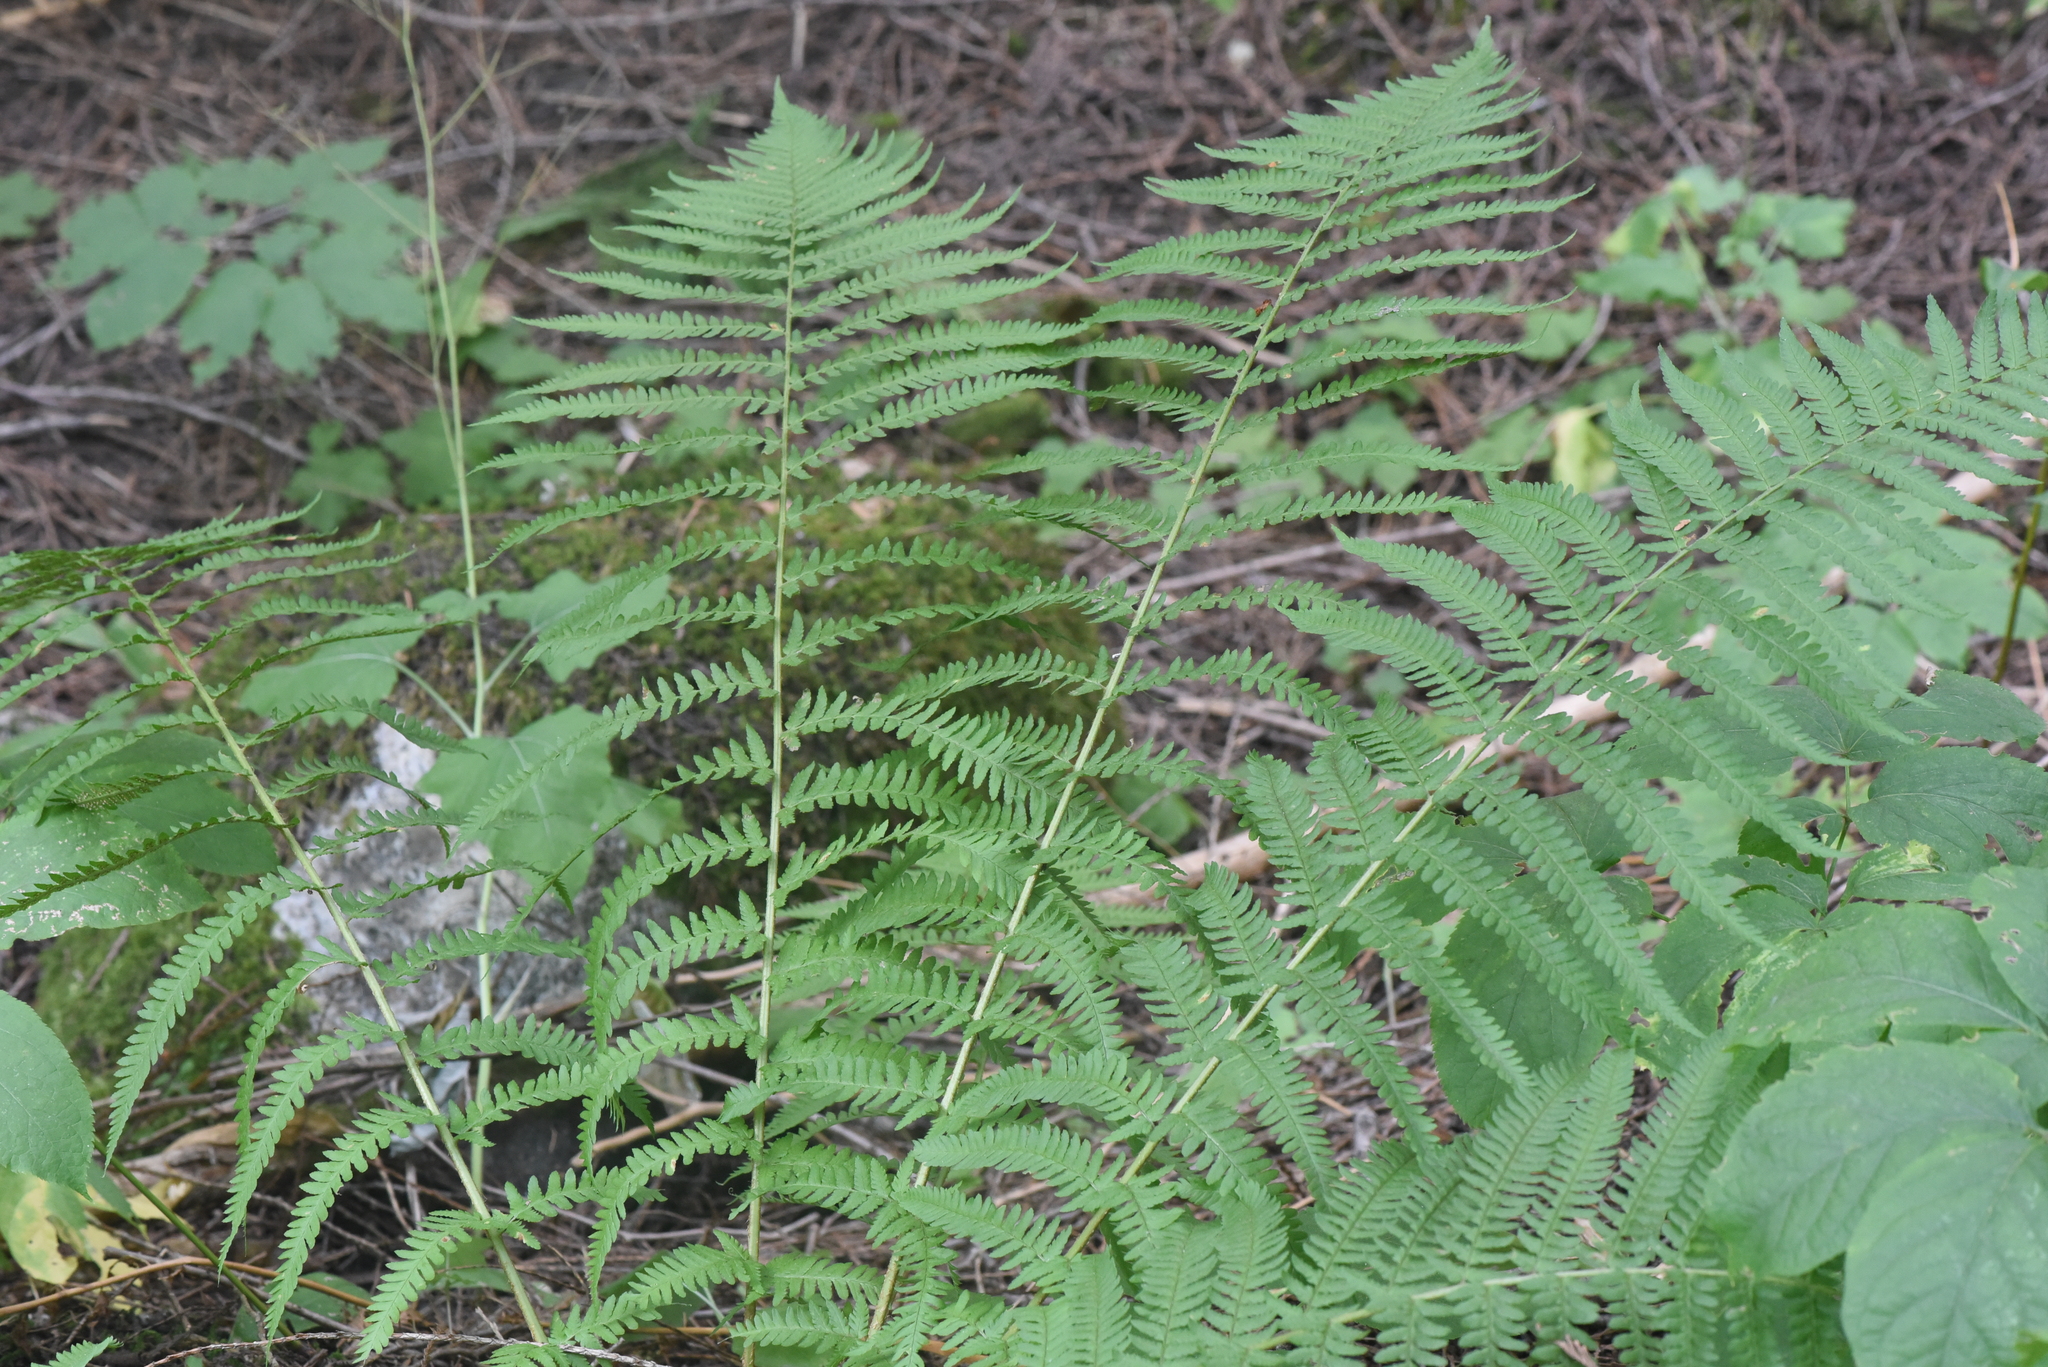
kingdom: Plantae
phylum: Tracheophyta
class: Polypodiopsida
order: Polypodiales
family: Dryopteridaceae
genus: Dryopteris
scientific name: Dryopteris filix-mas
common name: Male fern
